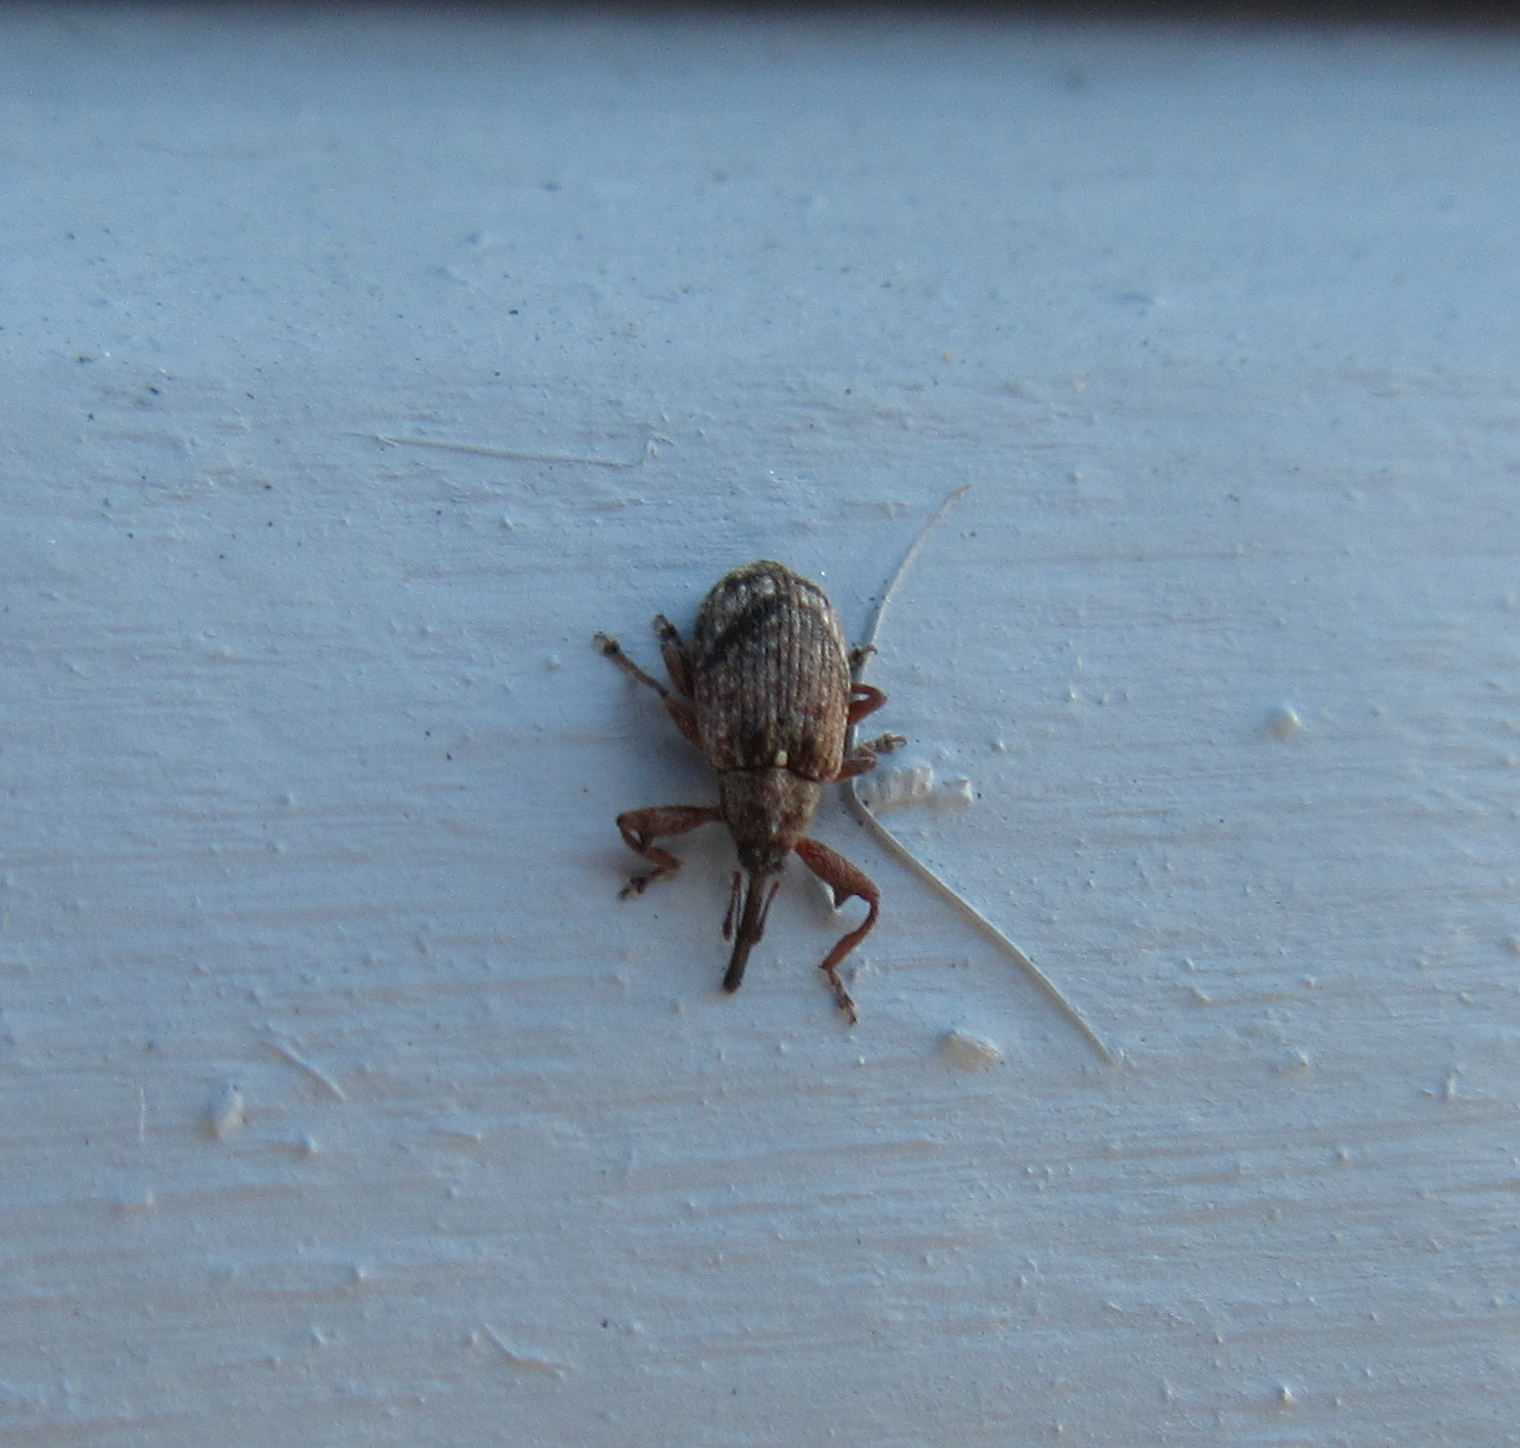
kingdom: Animalia
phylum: Arthropoda
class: Insecta
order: Coleoptera
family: Curculionidae
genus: Anthonomus
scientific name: Anthonomus pomorum
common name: Apple-blossom weevil
